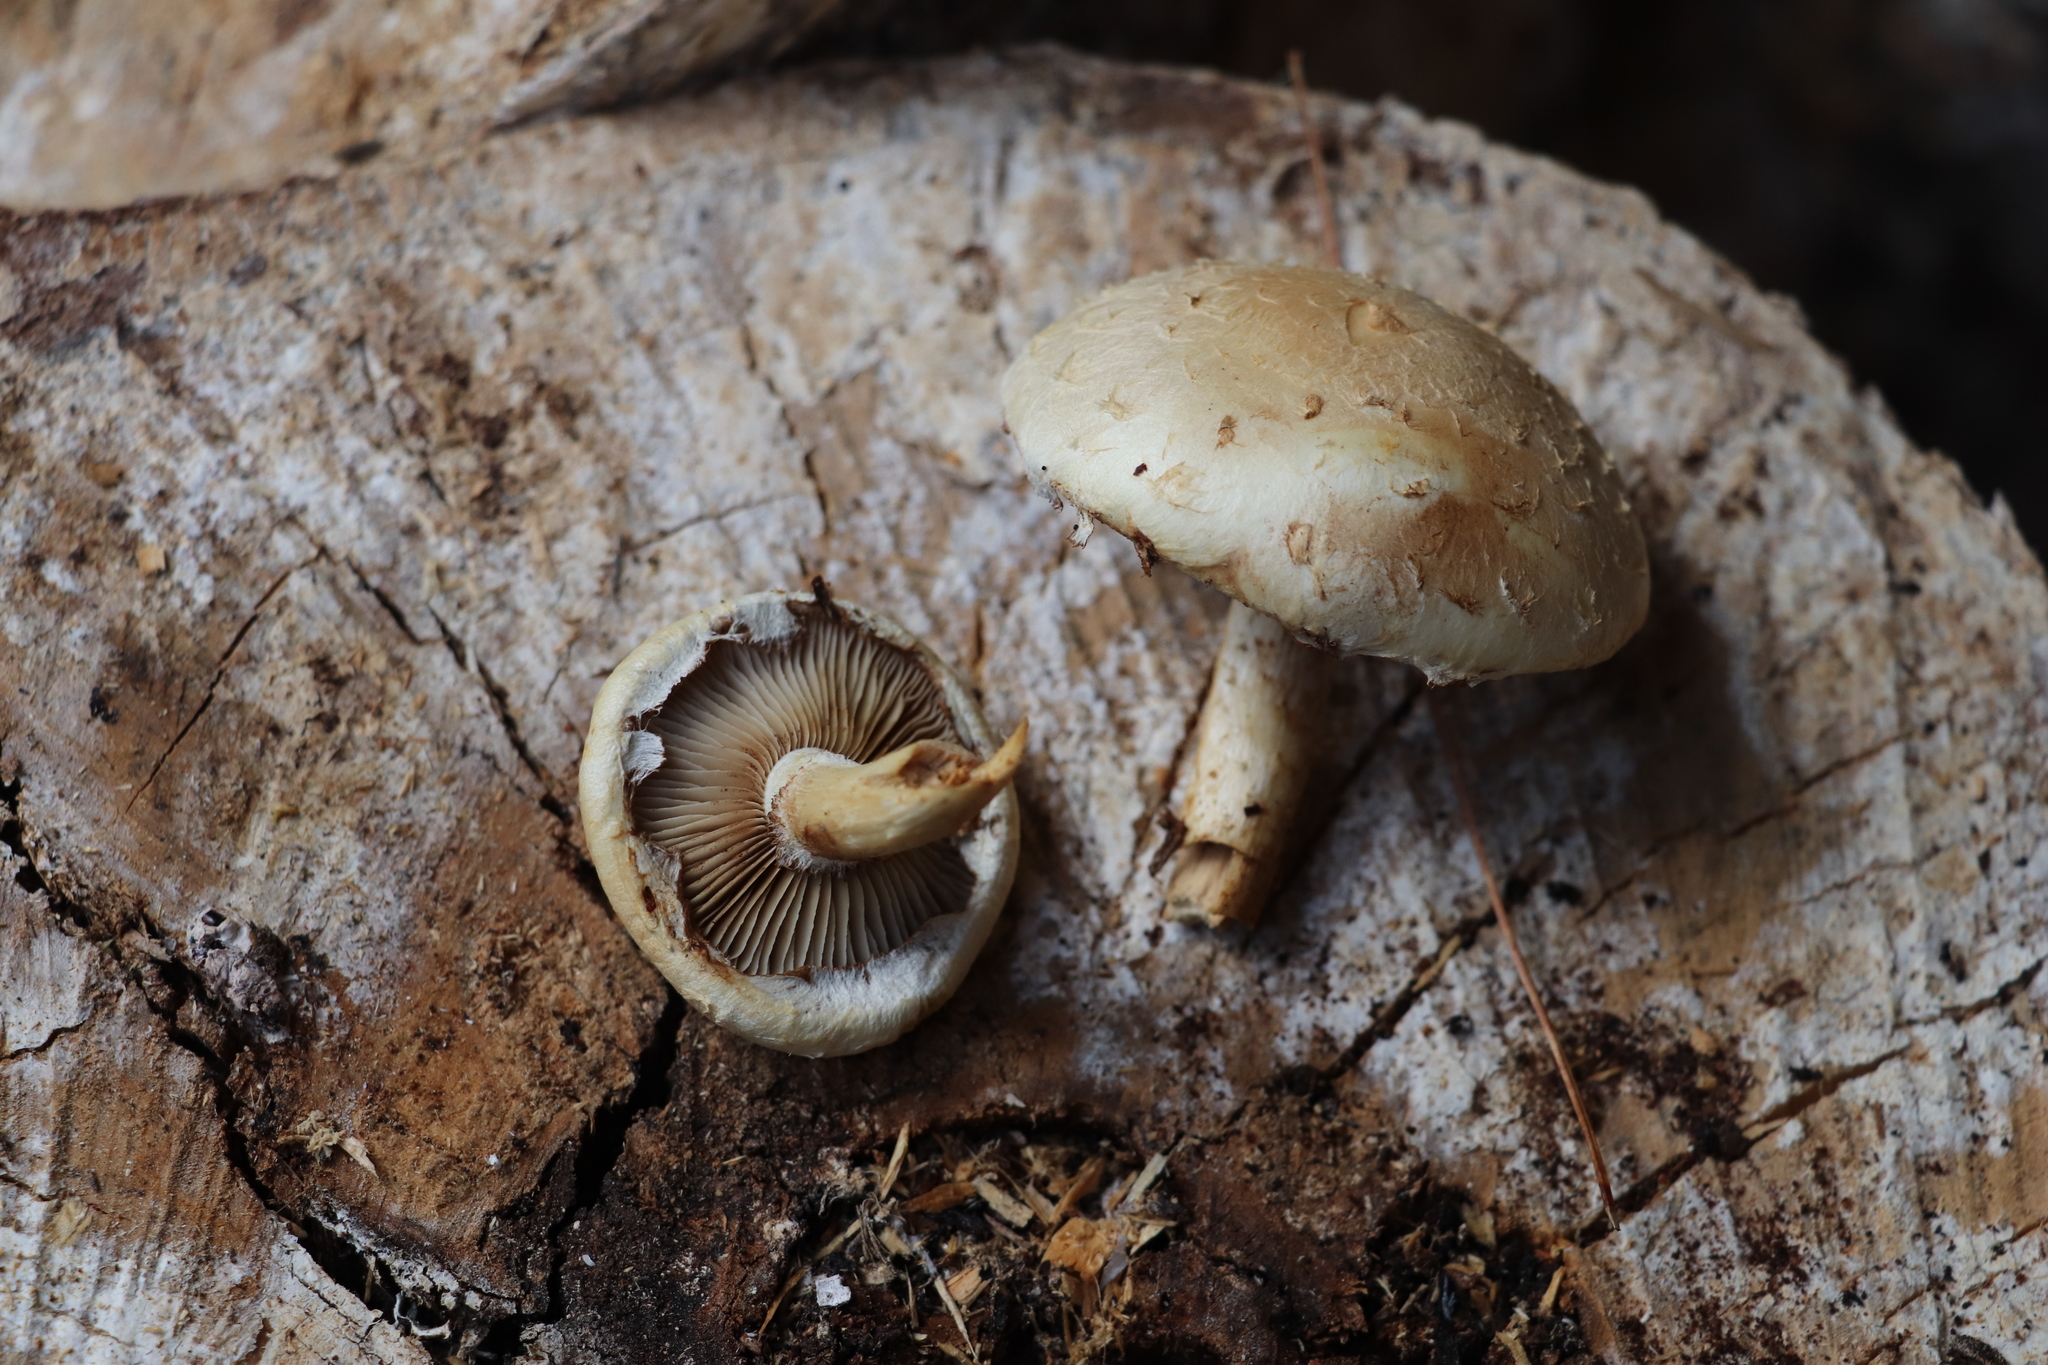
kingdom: Fungi
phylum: Basidiomycota
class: Agaricomycetes
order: Agaricales
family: Strophariaceae
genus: Pholiota
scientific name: Pholiota populnea
